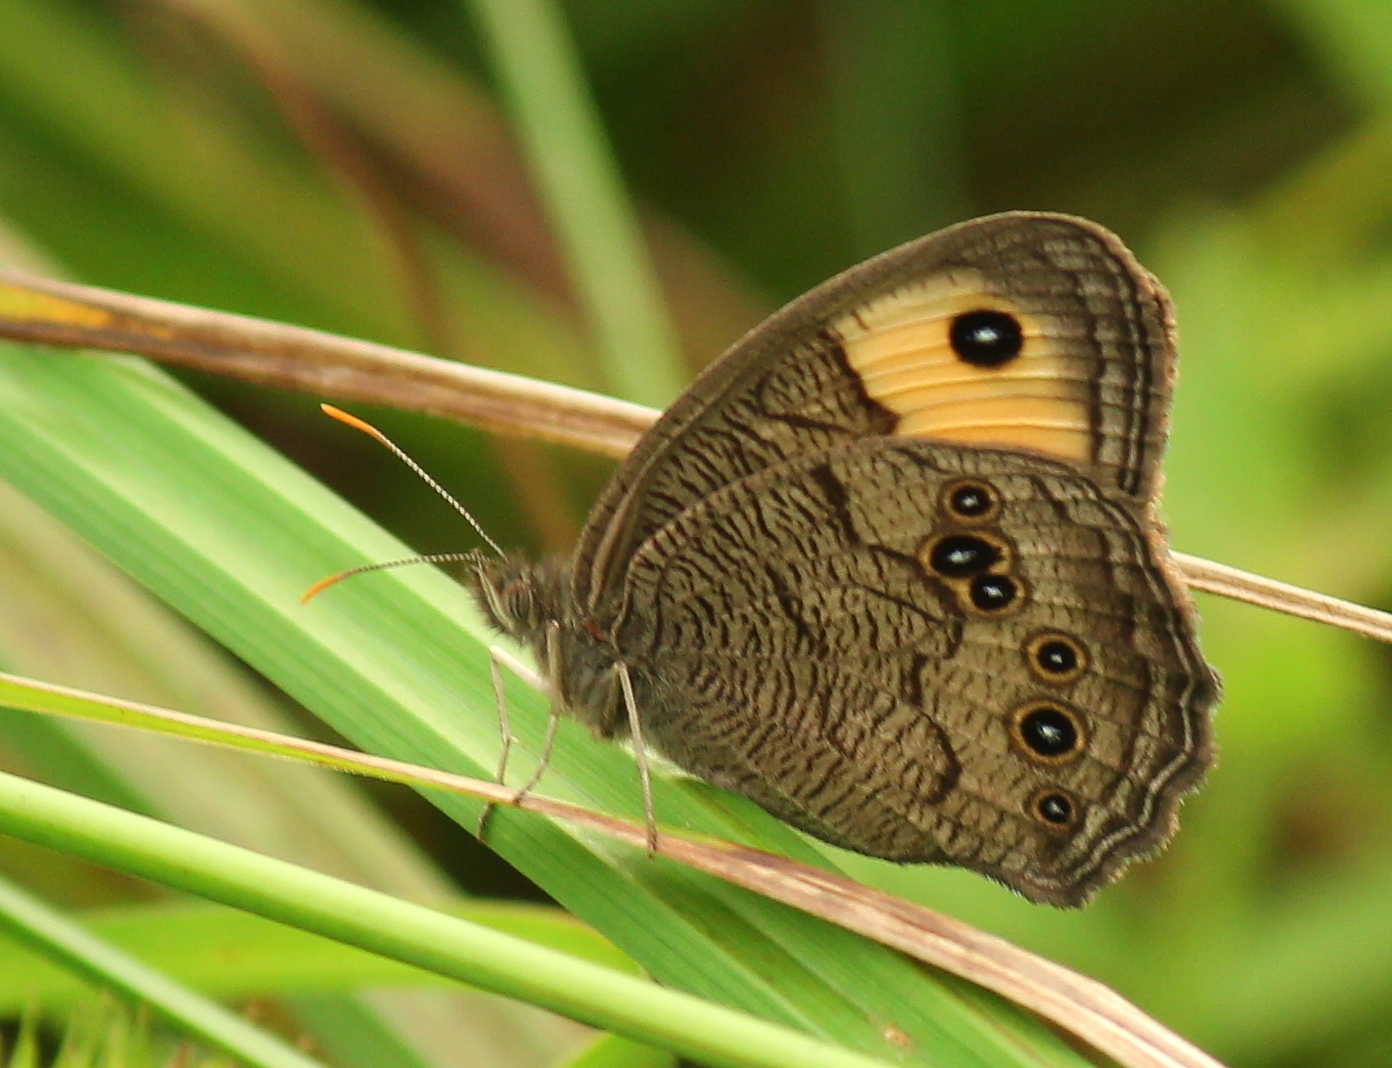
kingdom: Animalia
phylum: Arthropoda
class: Insecta
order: Lepidoptera
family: Nymphalidae
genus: Cercyonis
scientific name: Cercyonis pegala
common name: Common wood-nymph
